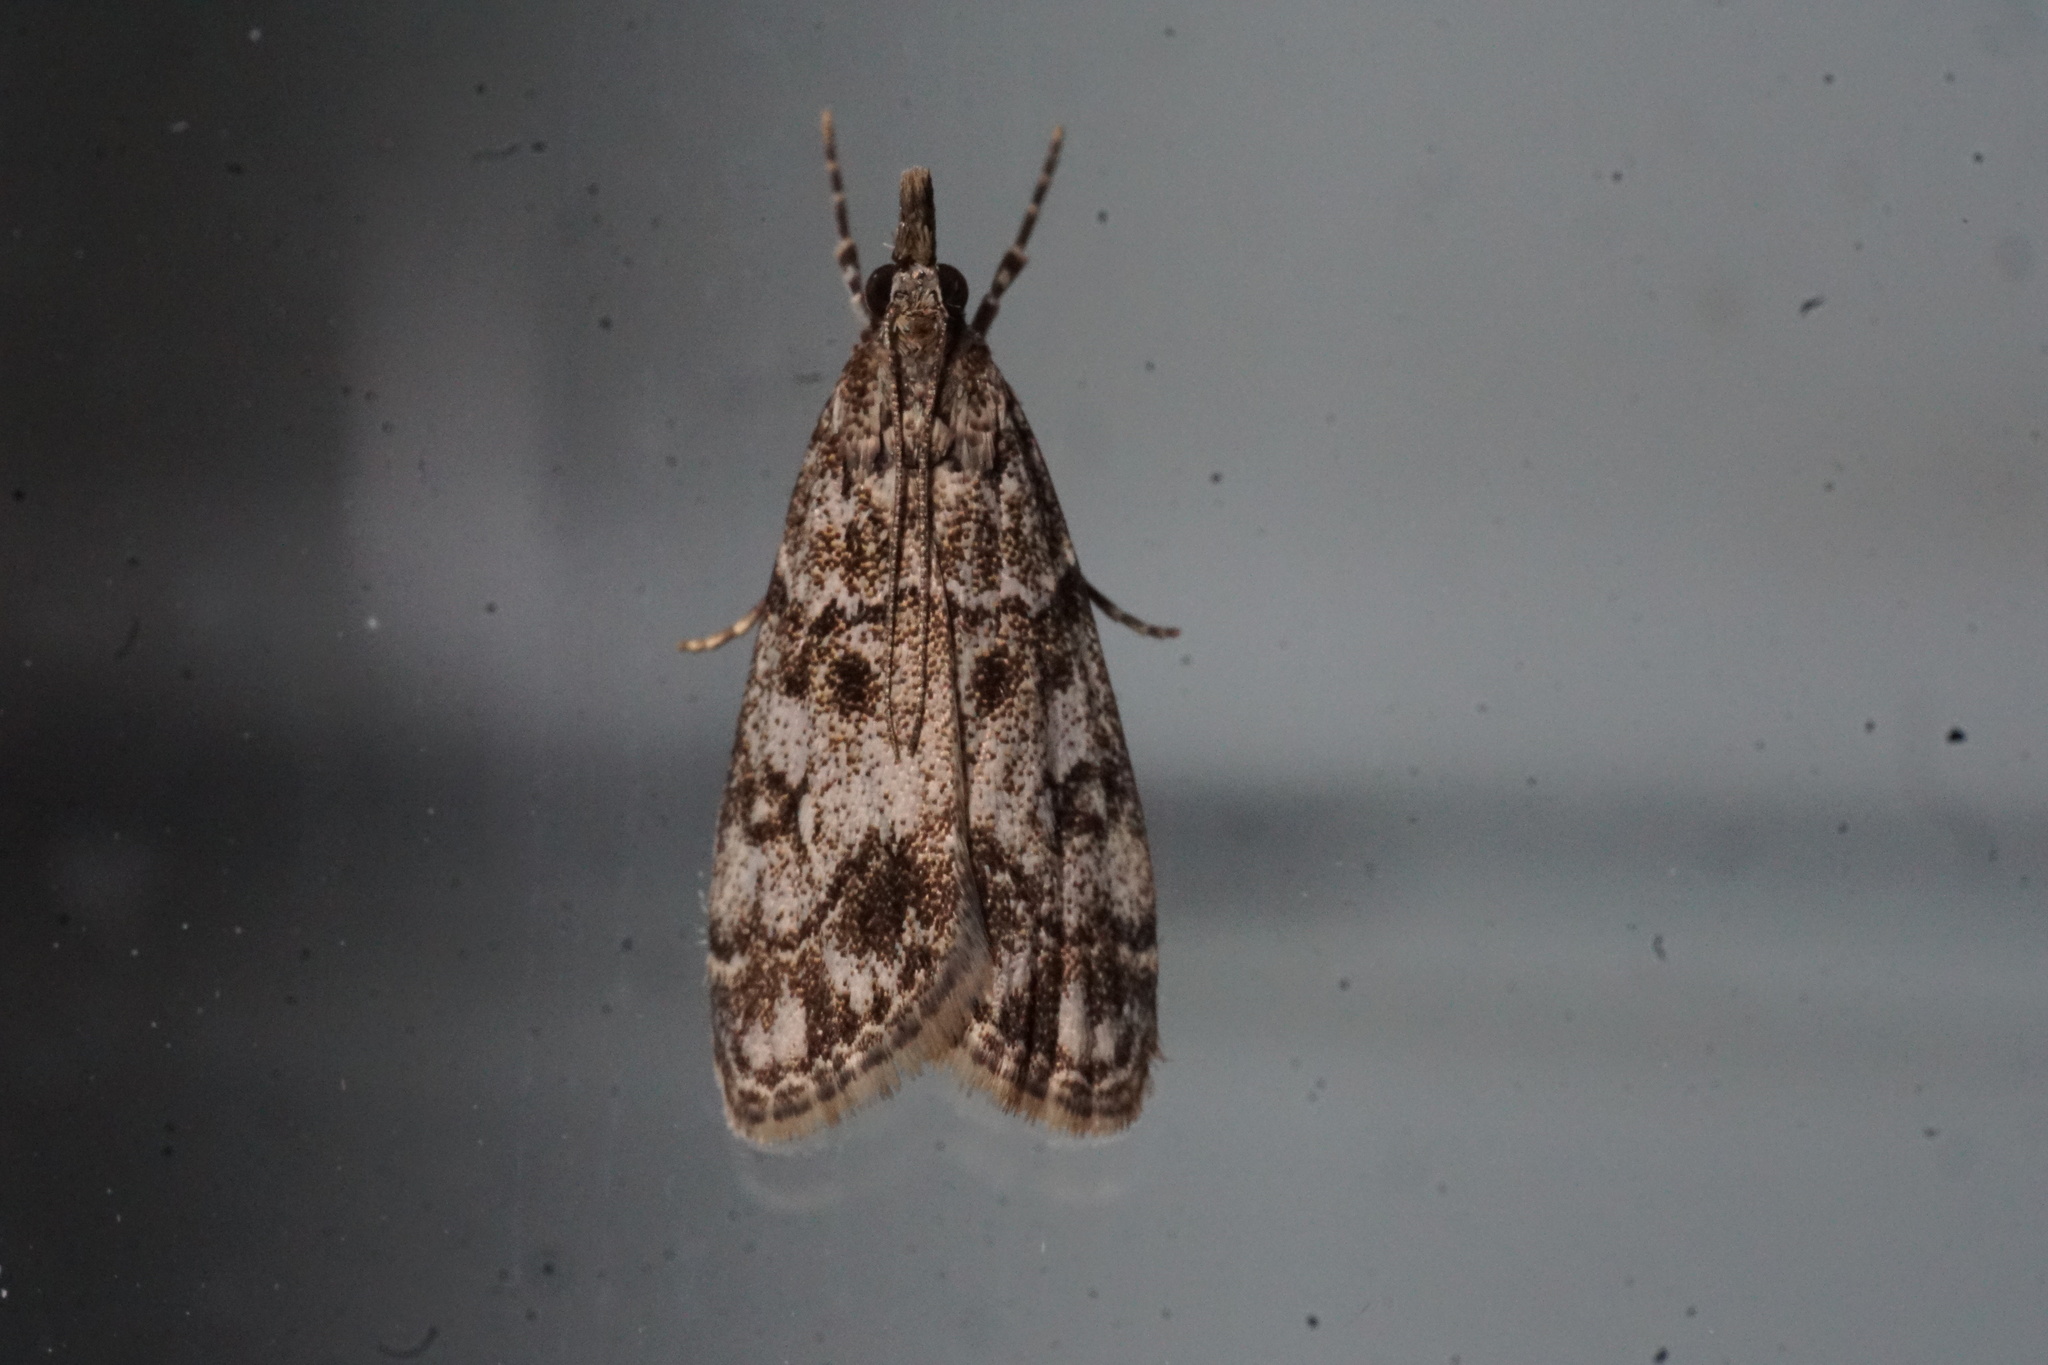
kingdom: Animalia
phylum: Arthropoda
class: Insecta
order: Lepidoptera
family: Crambidae
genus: Eudonia
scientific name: Eudonia lacustrata
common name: Little grey
